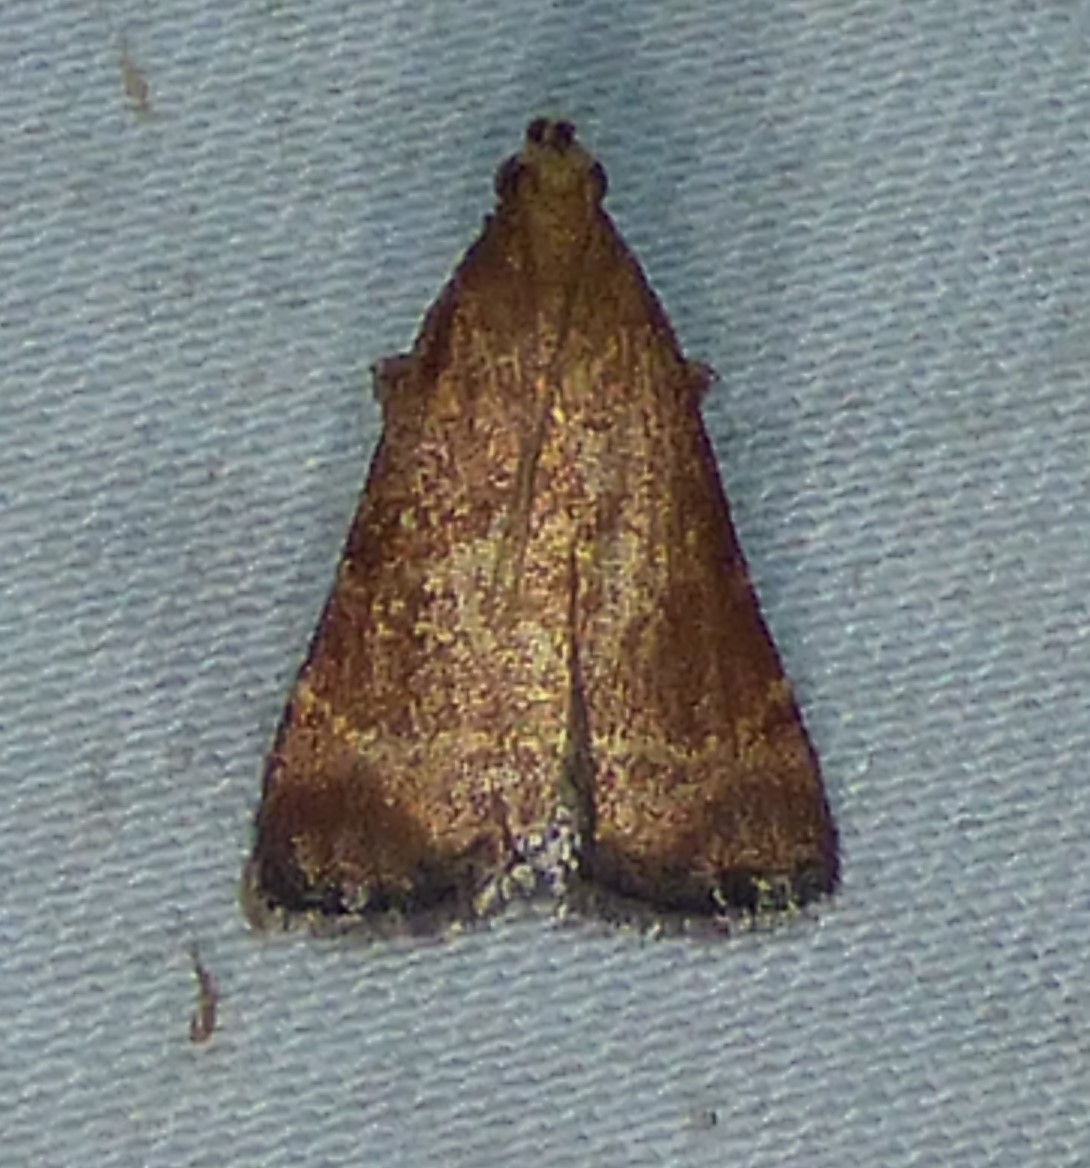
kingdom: Animalia
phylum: Arthropoda
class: Insecta
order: Lepidoptera
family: Pyralidae
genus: Arta
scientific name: Arta statalis
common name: Posturing arta moth
